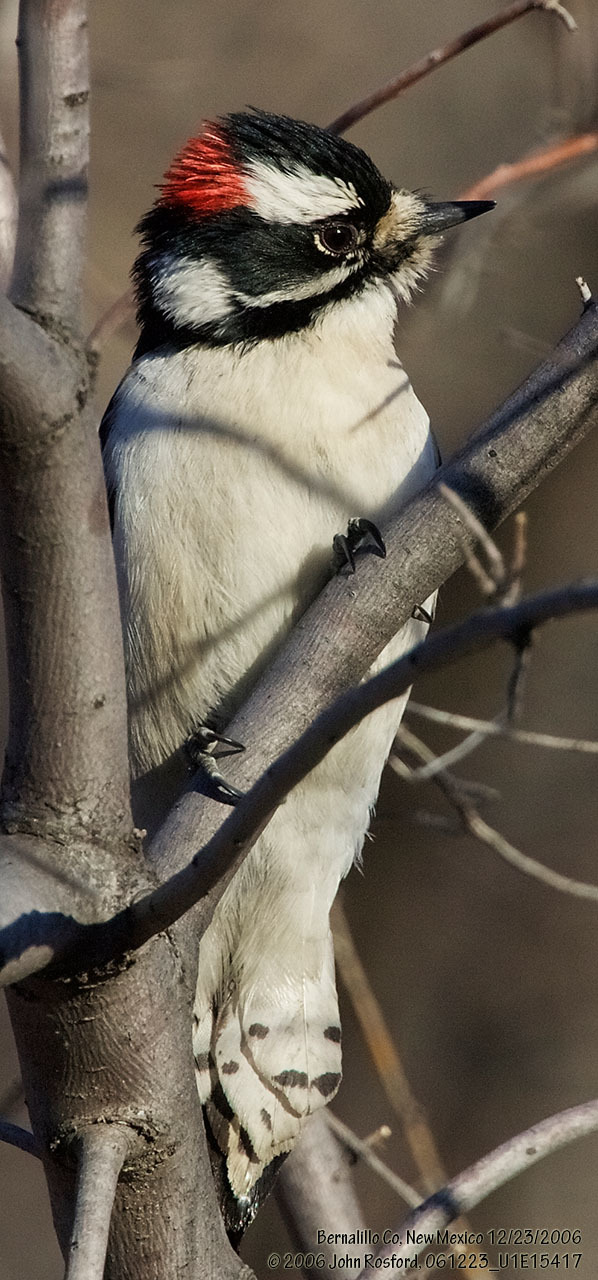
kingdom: Animalia
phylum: Chordata
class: Aves
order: Piciformes
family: Picidae
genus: Dryobates
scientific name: Dryobates pubescens
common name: Downy woodpecker
